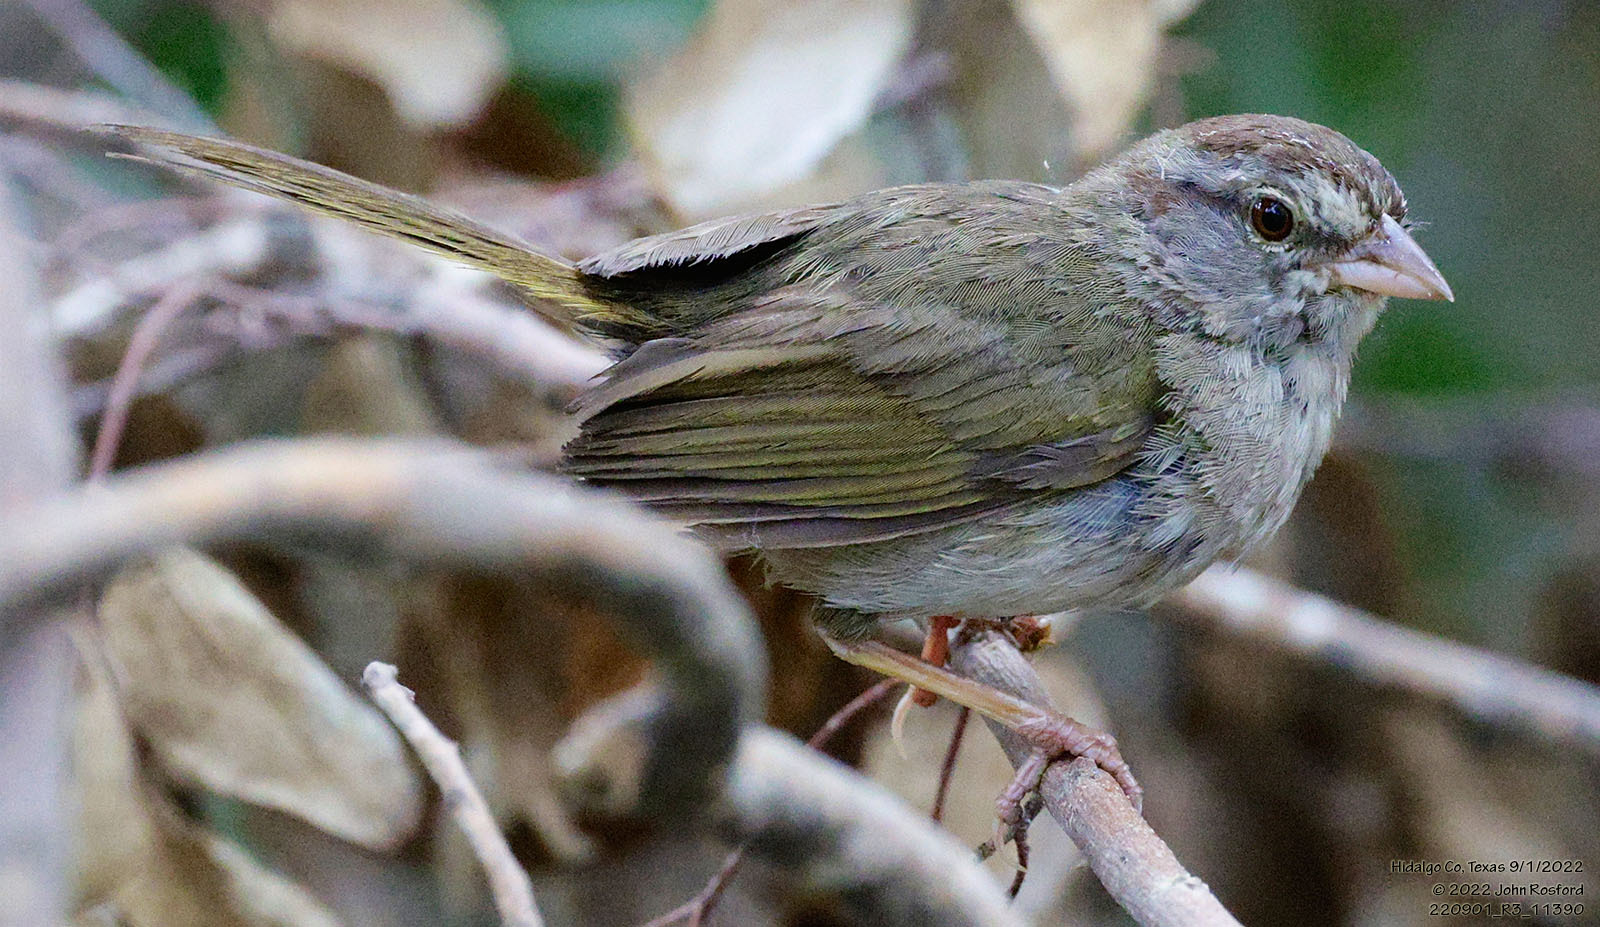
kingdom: Animalia
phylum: Chordata
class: Aves
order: Passeriformes
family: Passerellidae
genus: Arremonops
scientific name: Arremonops rufivirgatus
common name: Olive sparrow
